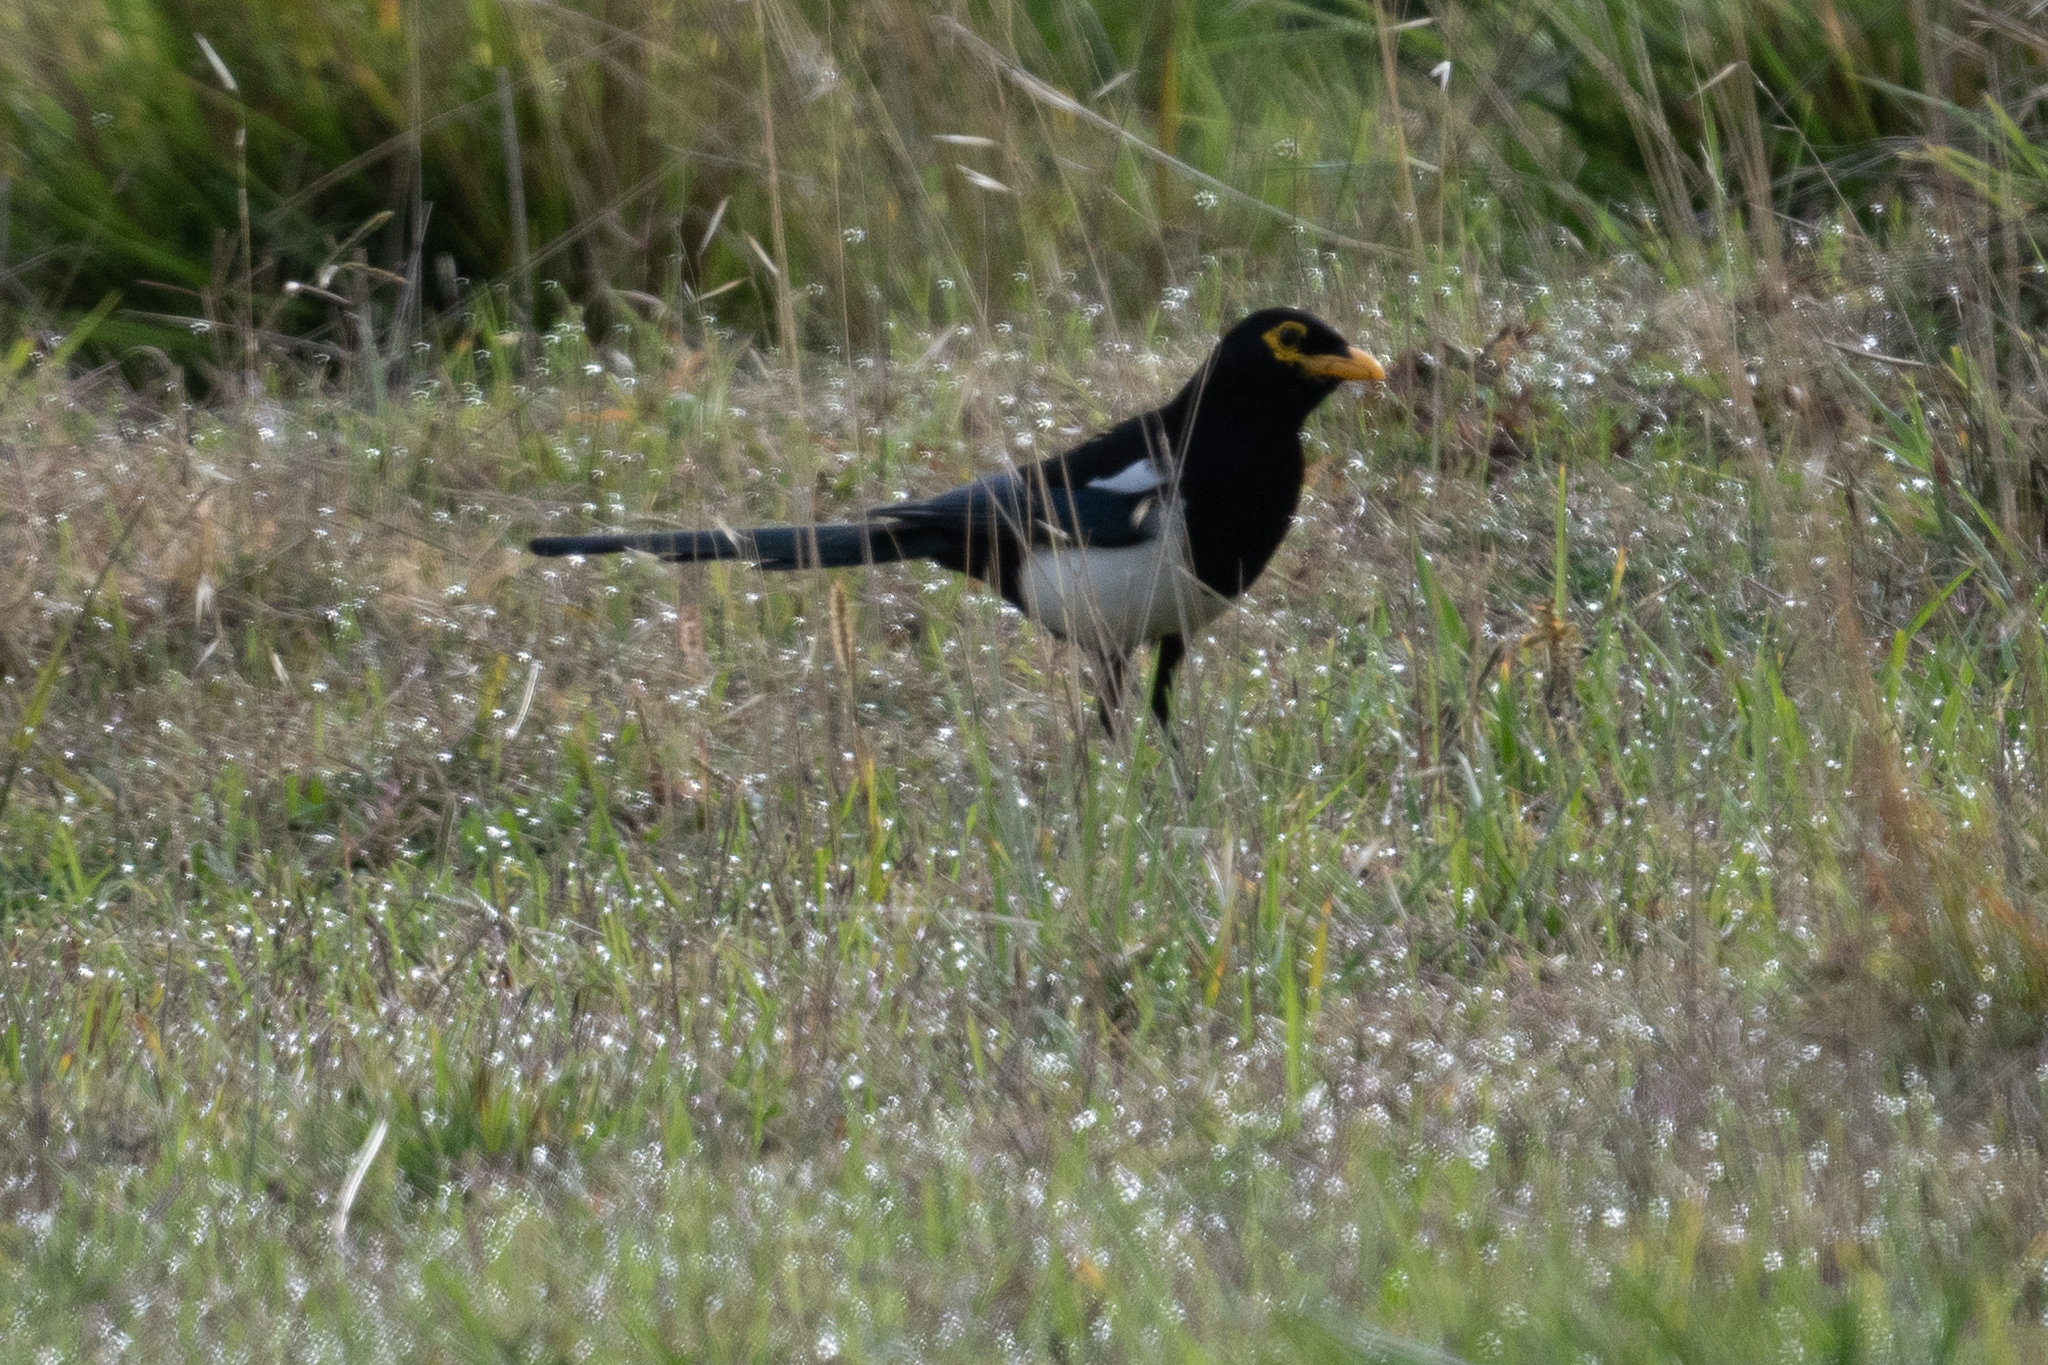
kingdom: Animalia
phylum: Chordata
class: Aves
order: Passeriformes
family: Corvidae
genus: Pica
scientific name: Pica nuttalli
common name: Yellow-billed magpie
